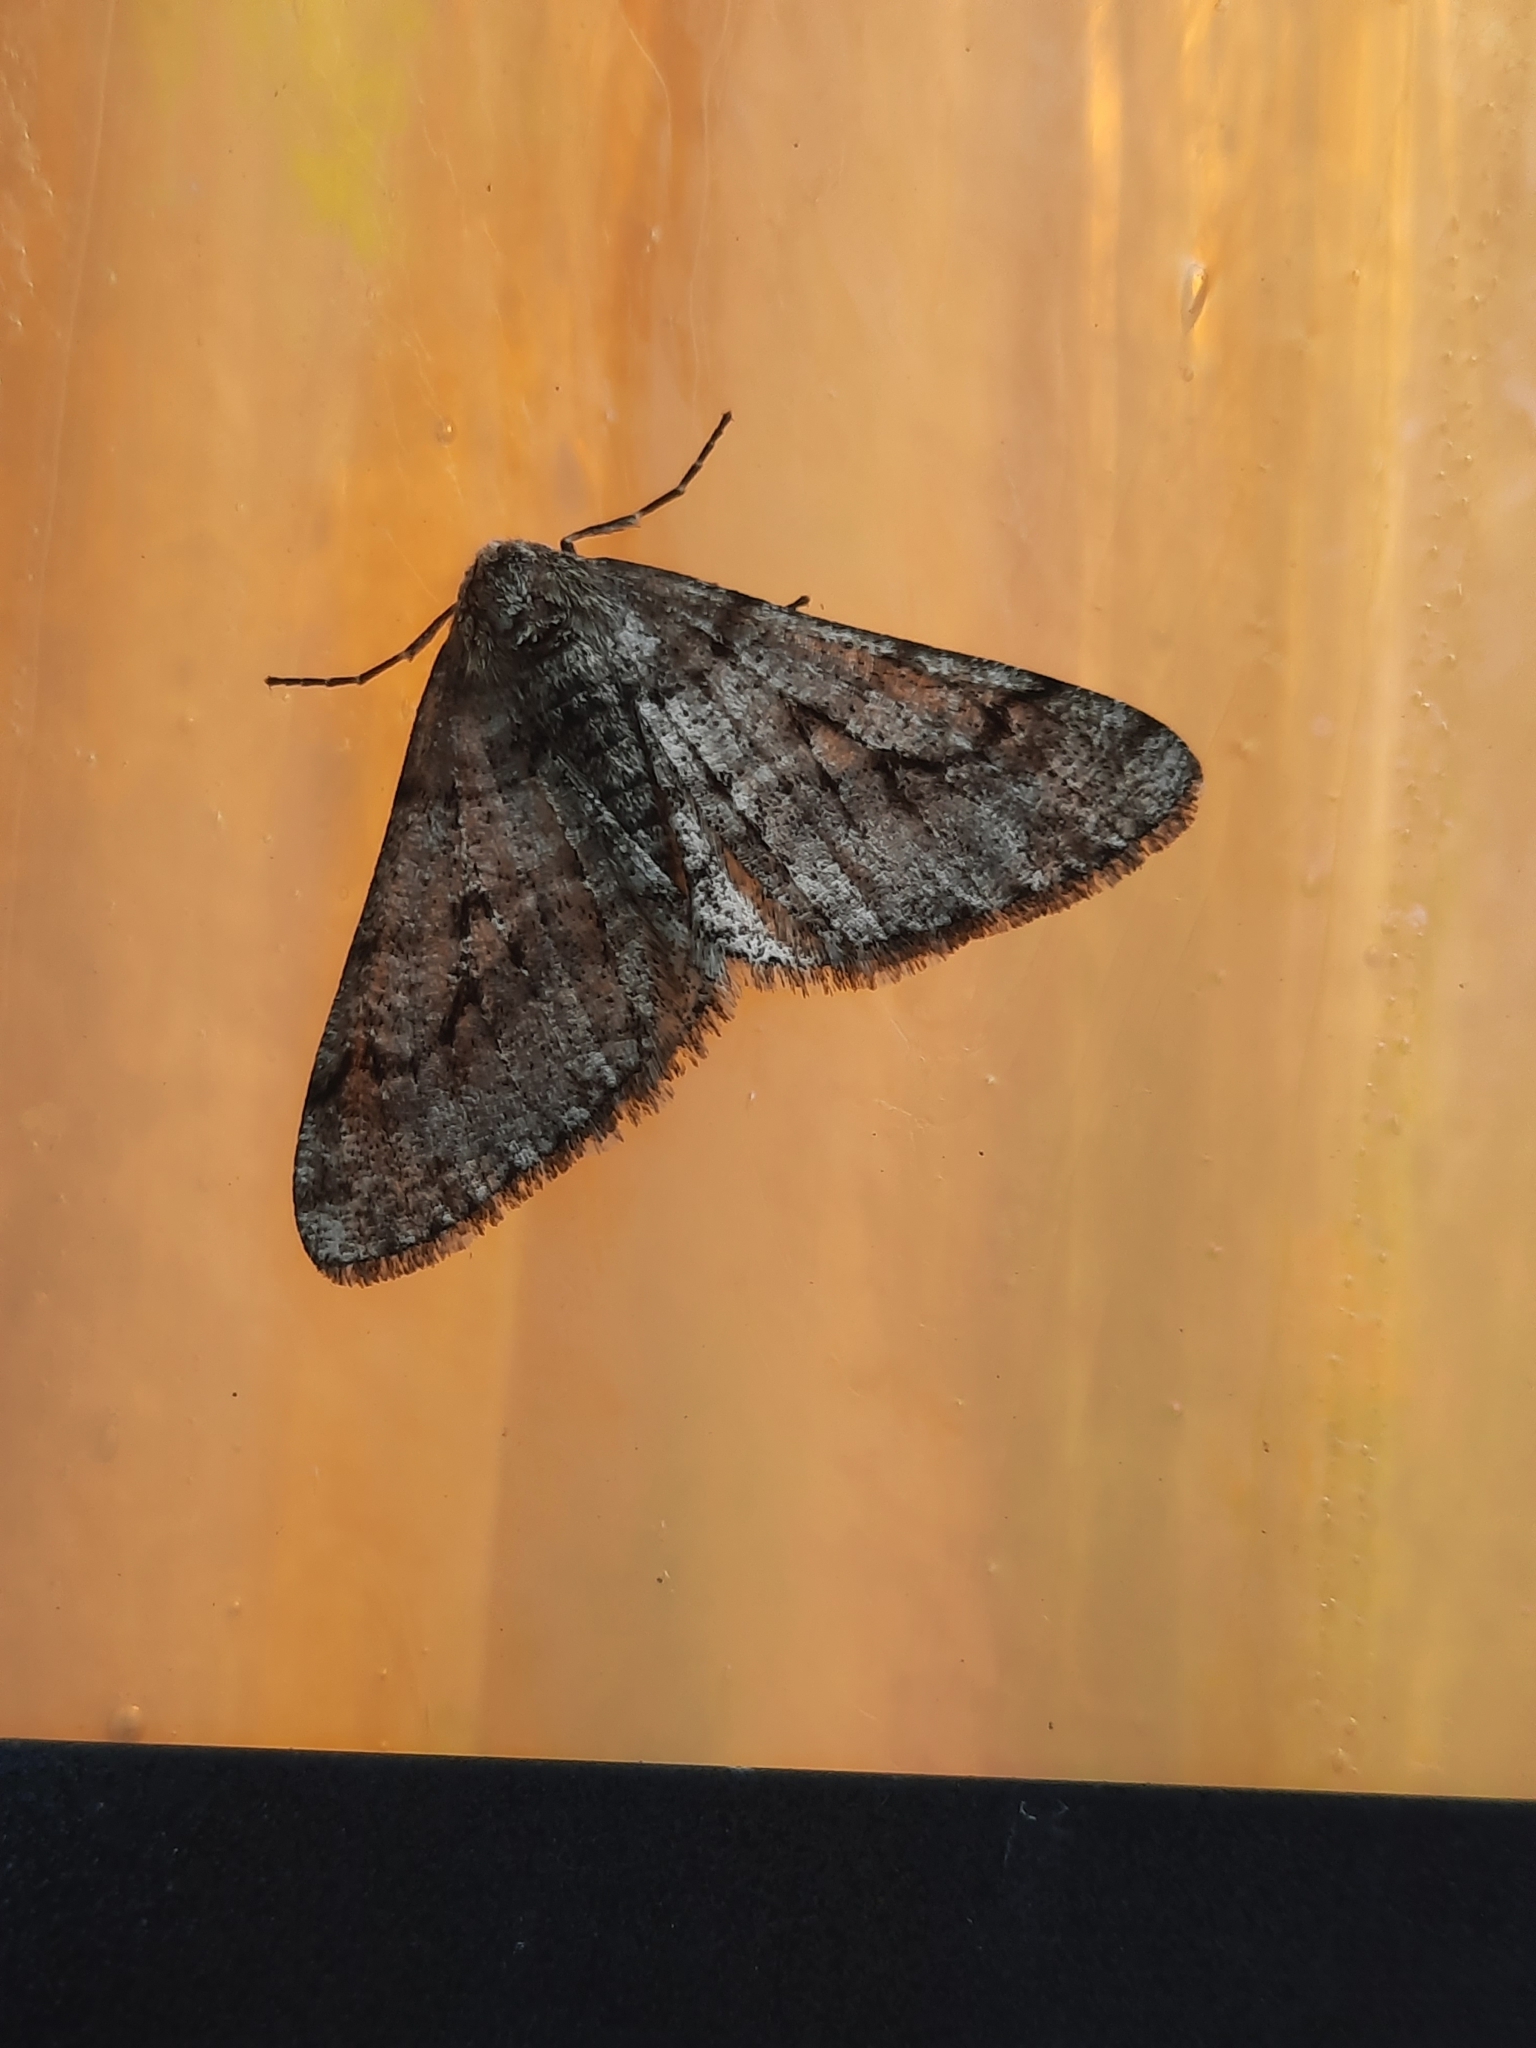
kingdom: Animalia
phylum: Arthropoda
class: Insecta
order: Lepidoptera
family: Geometridae
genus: Phigalia
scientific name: Phigalia titea
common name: Spiny looper
